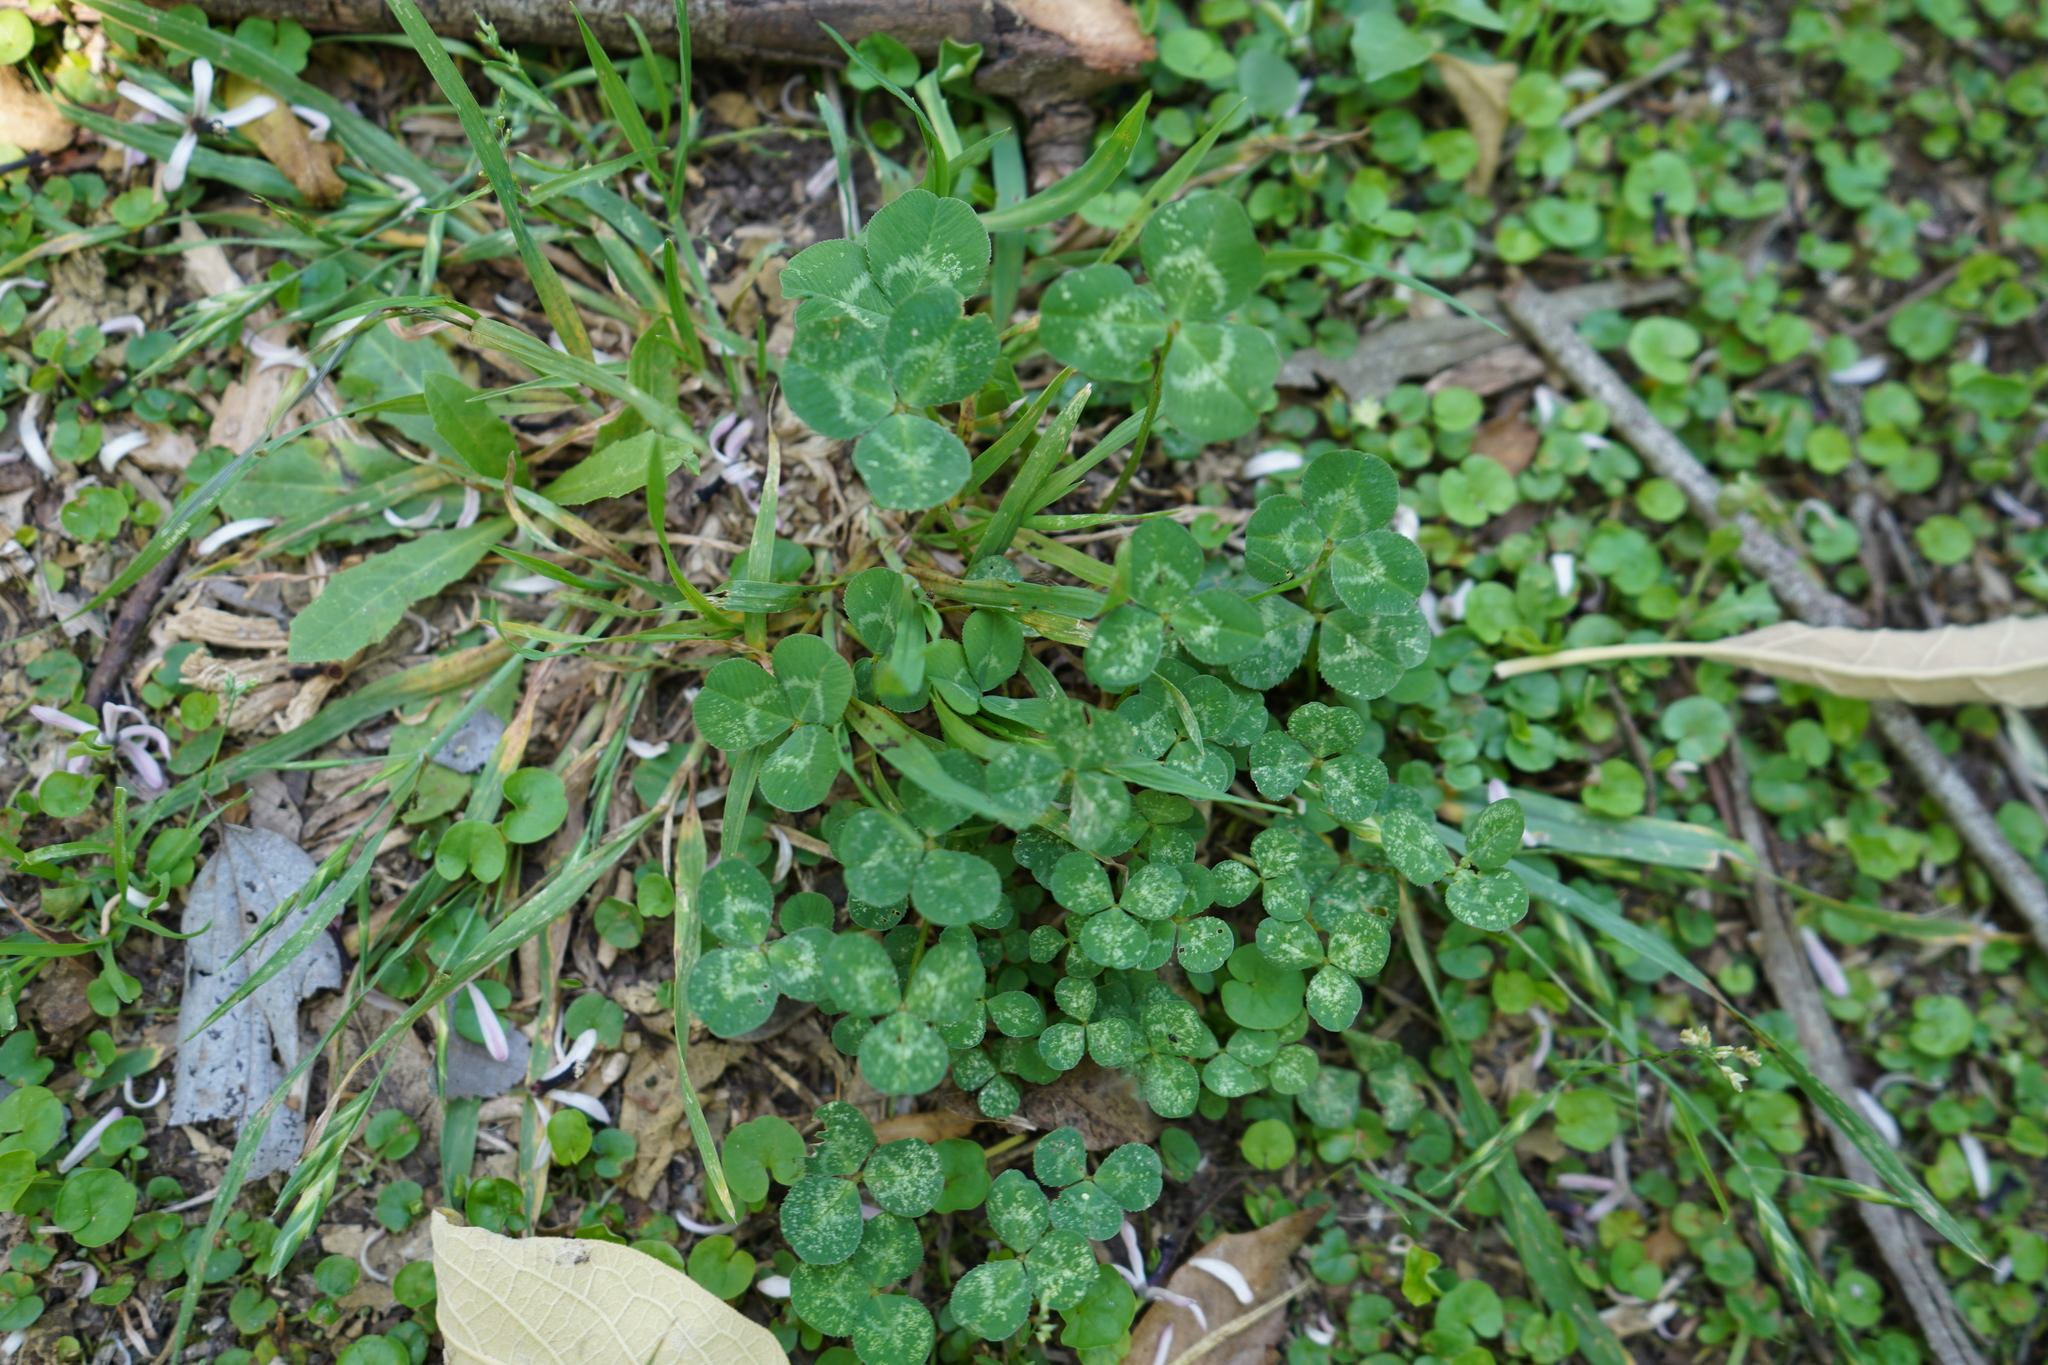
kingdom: Plantae
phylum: Tracheophyta
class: Magnoliopsida
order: Fabales
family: Fabaceae
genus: Trifolium
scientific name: Trifolium repens
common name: White clover
